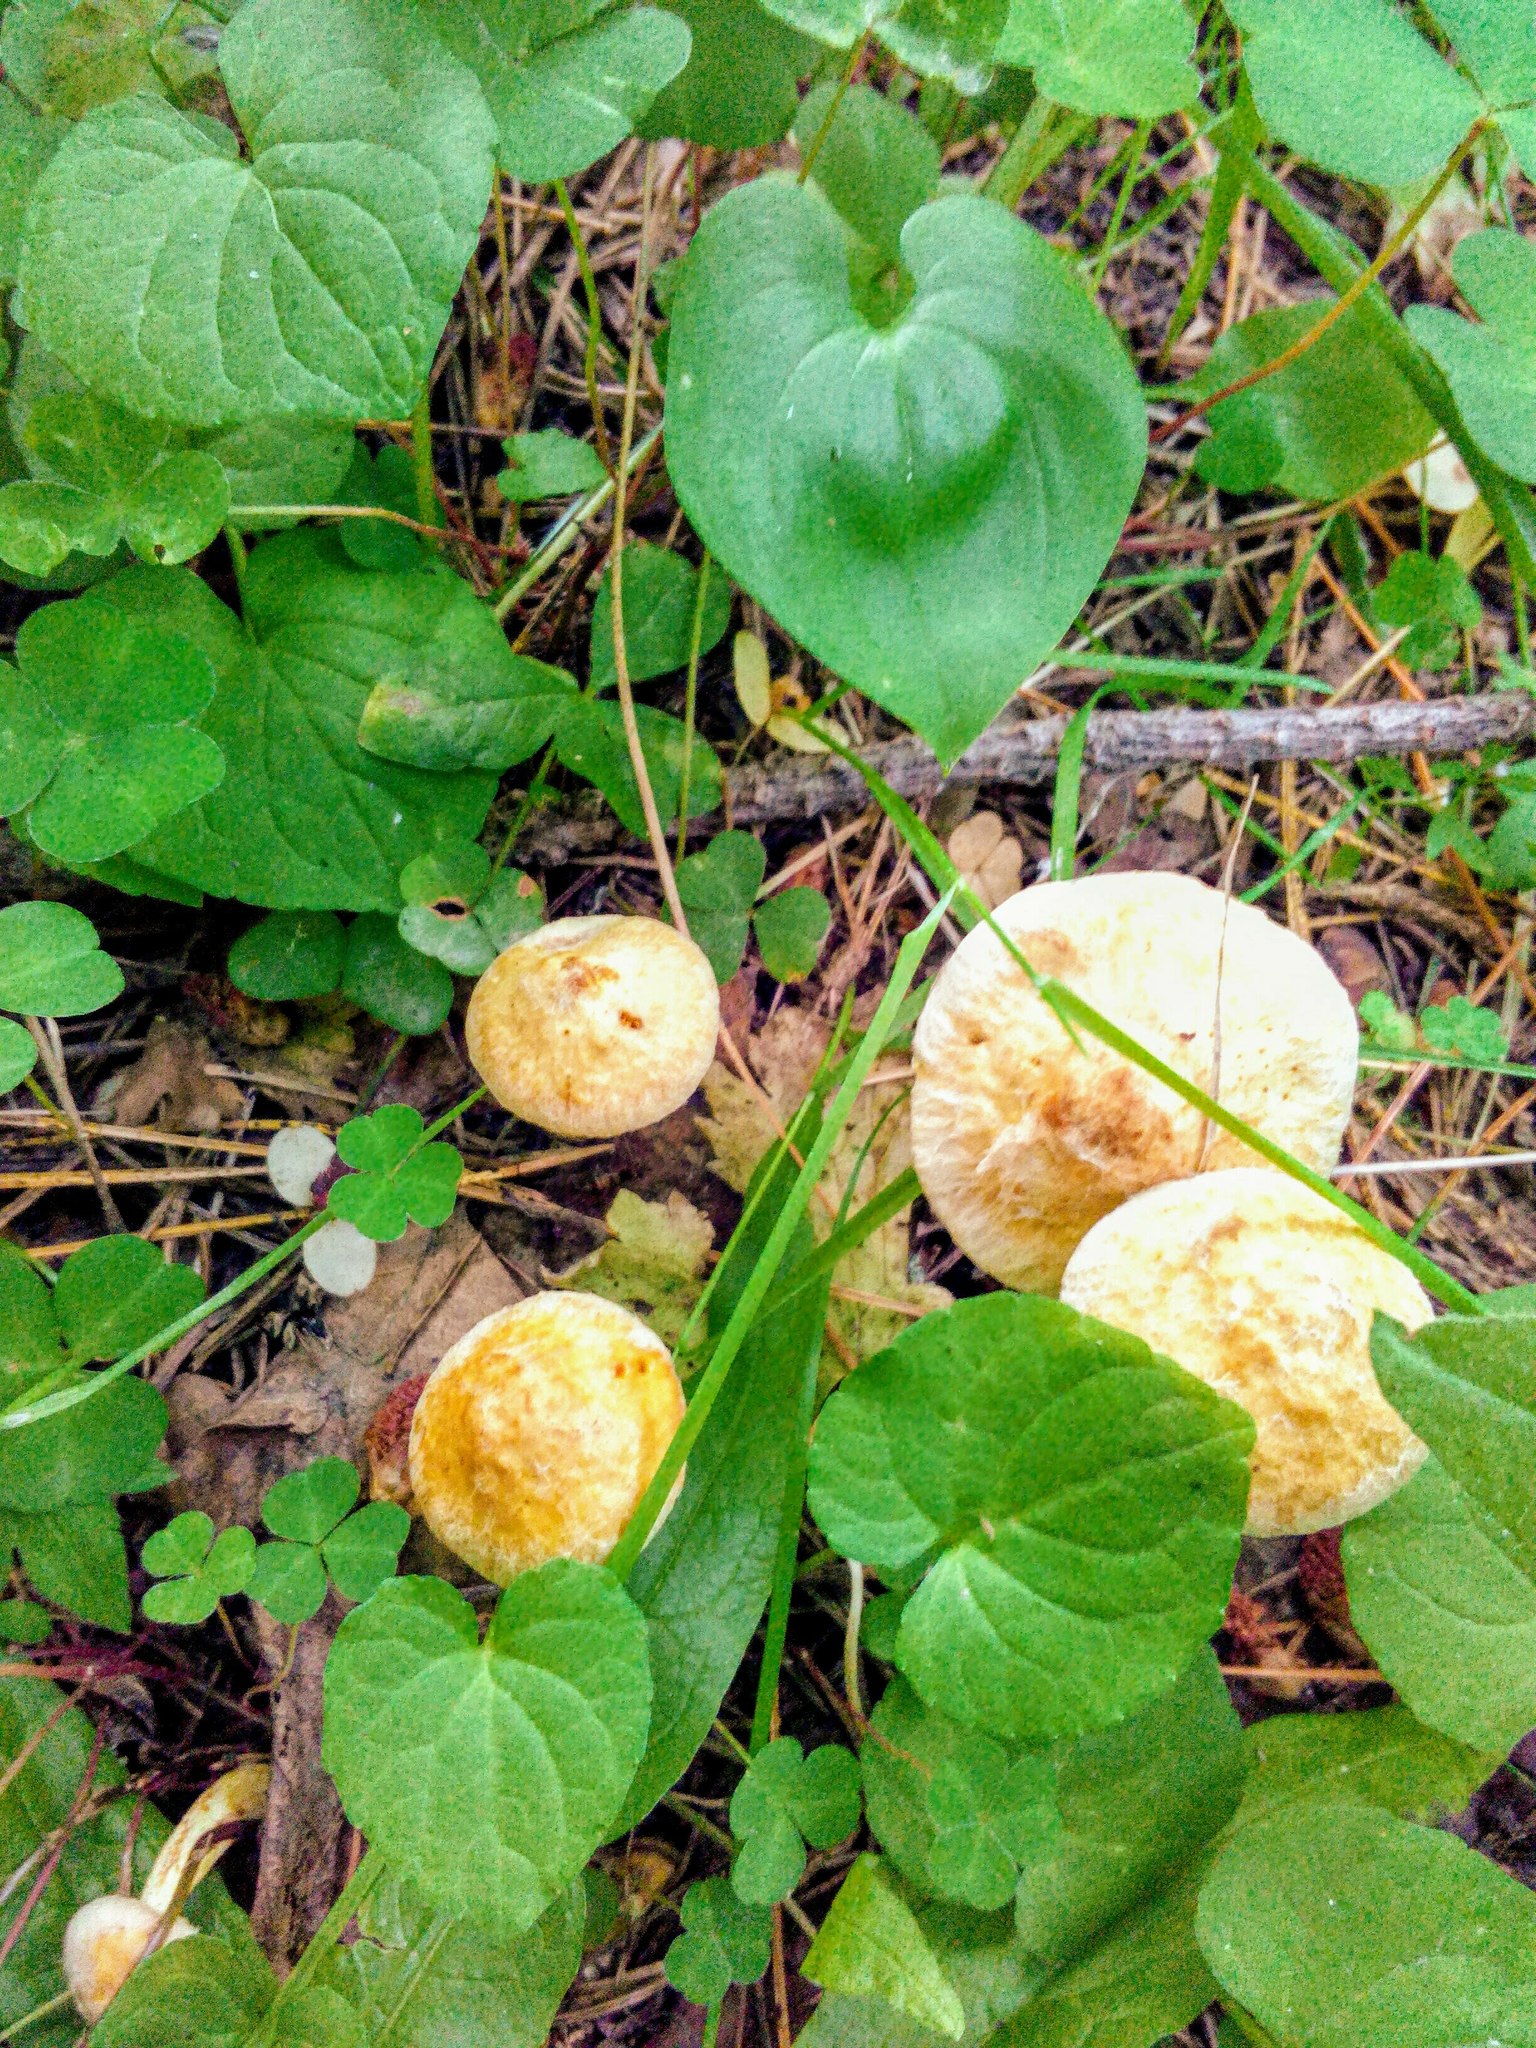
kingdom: Fungi
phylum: Basidiomycota
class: Agaricomycetes
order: Boletales
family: Suillaceae
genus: Suillus
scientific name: Suillus americanus
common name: Chicken fat mushroom
